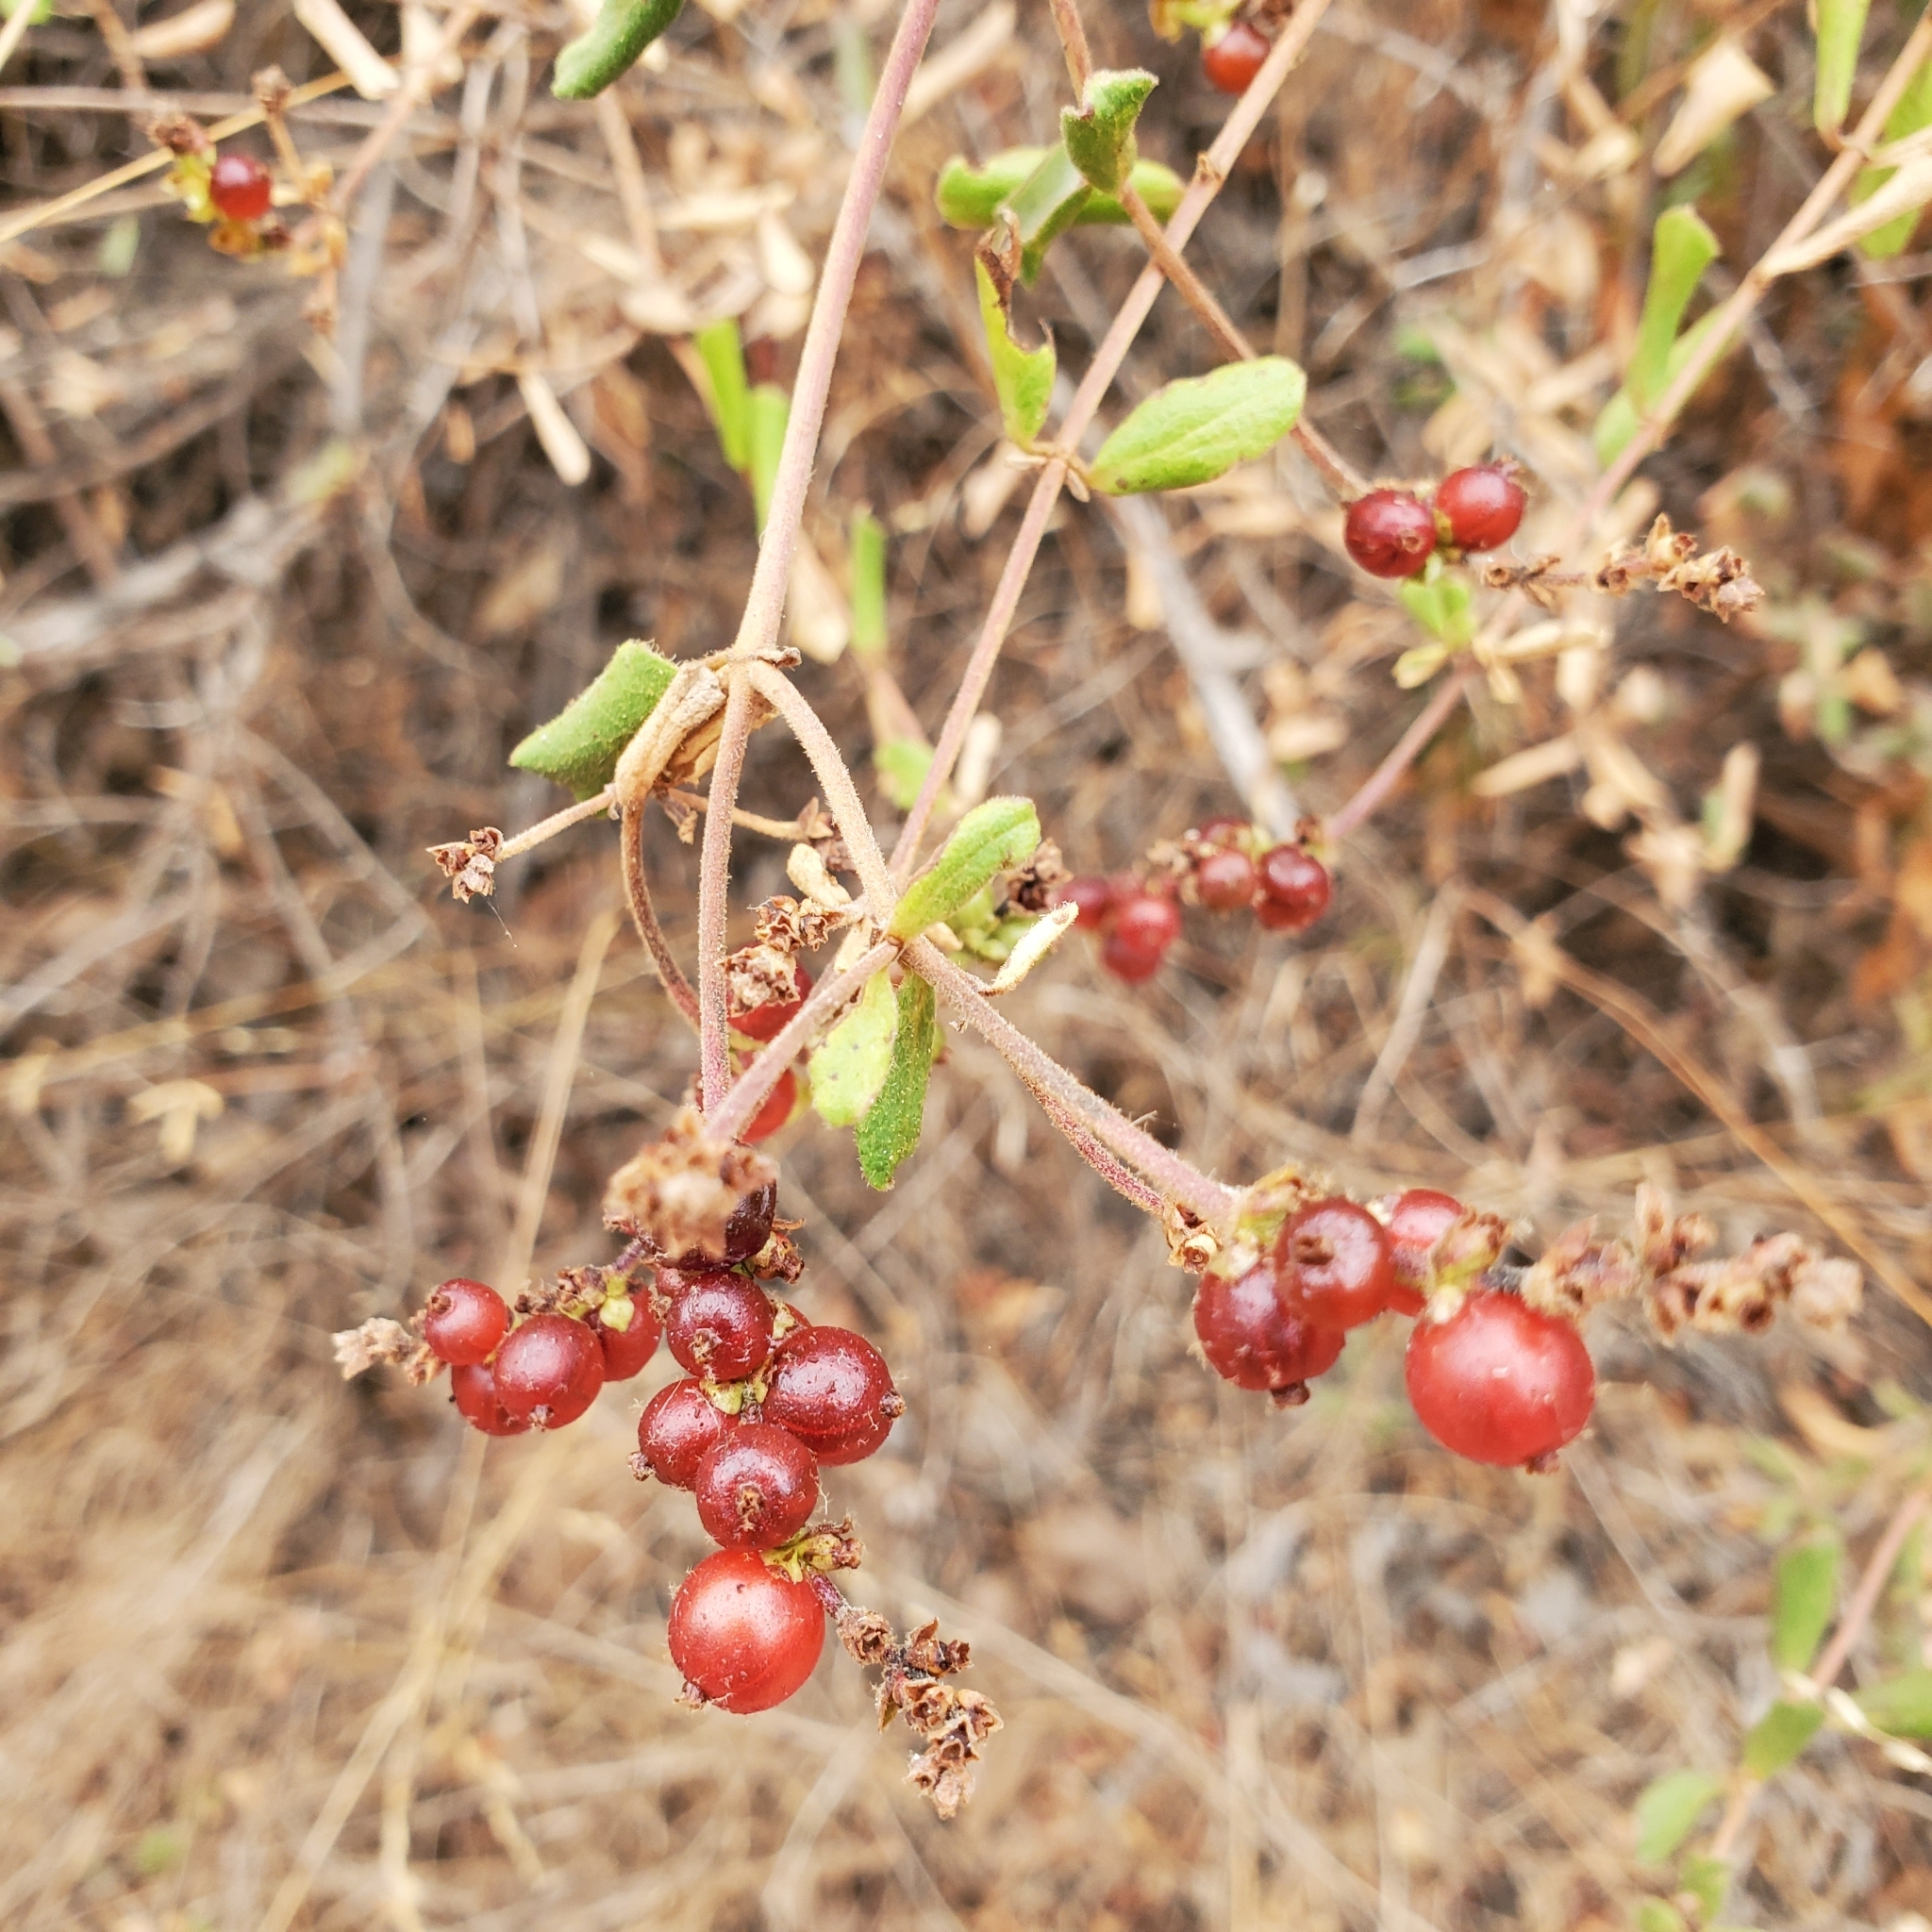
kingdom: Plantae
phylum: Tracheophyta
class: Magnoliopsida
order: Dipsacales
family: Caprifoliaceae
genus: Lonicera
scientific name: Lonicera subspicata
